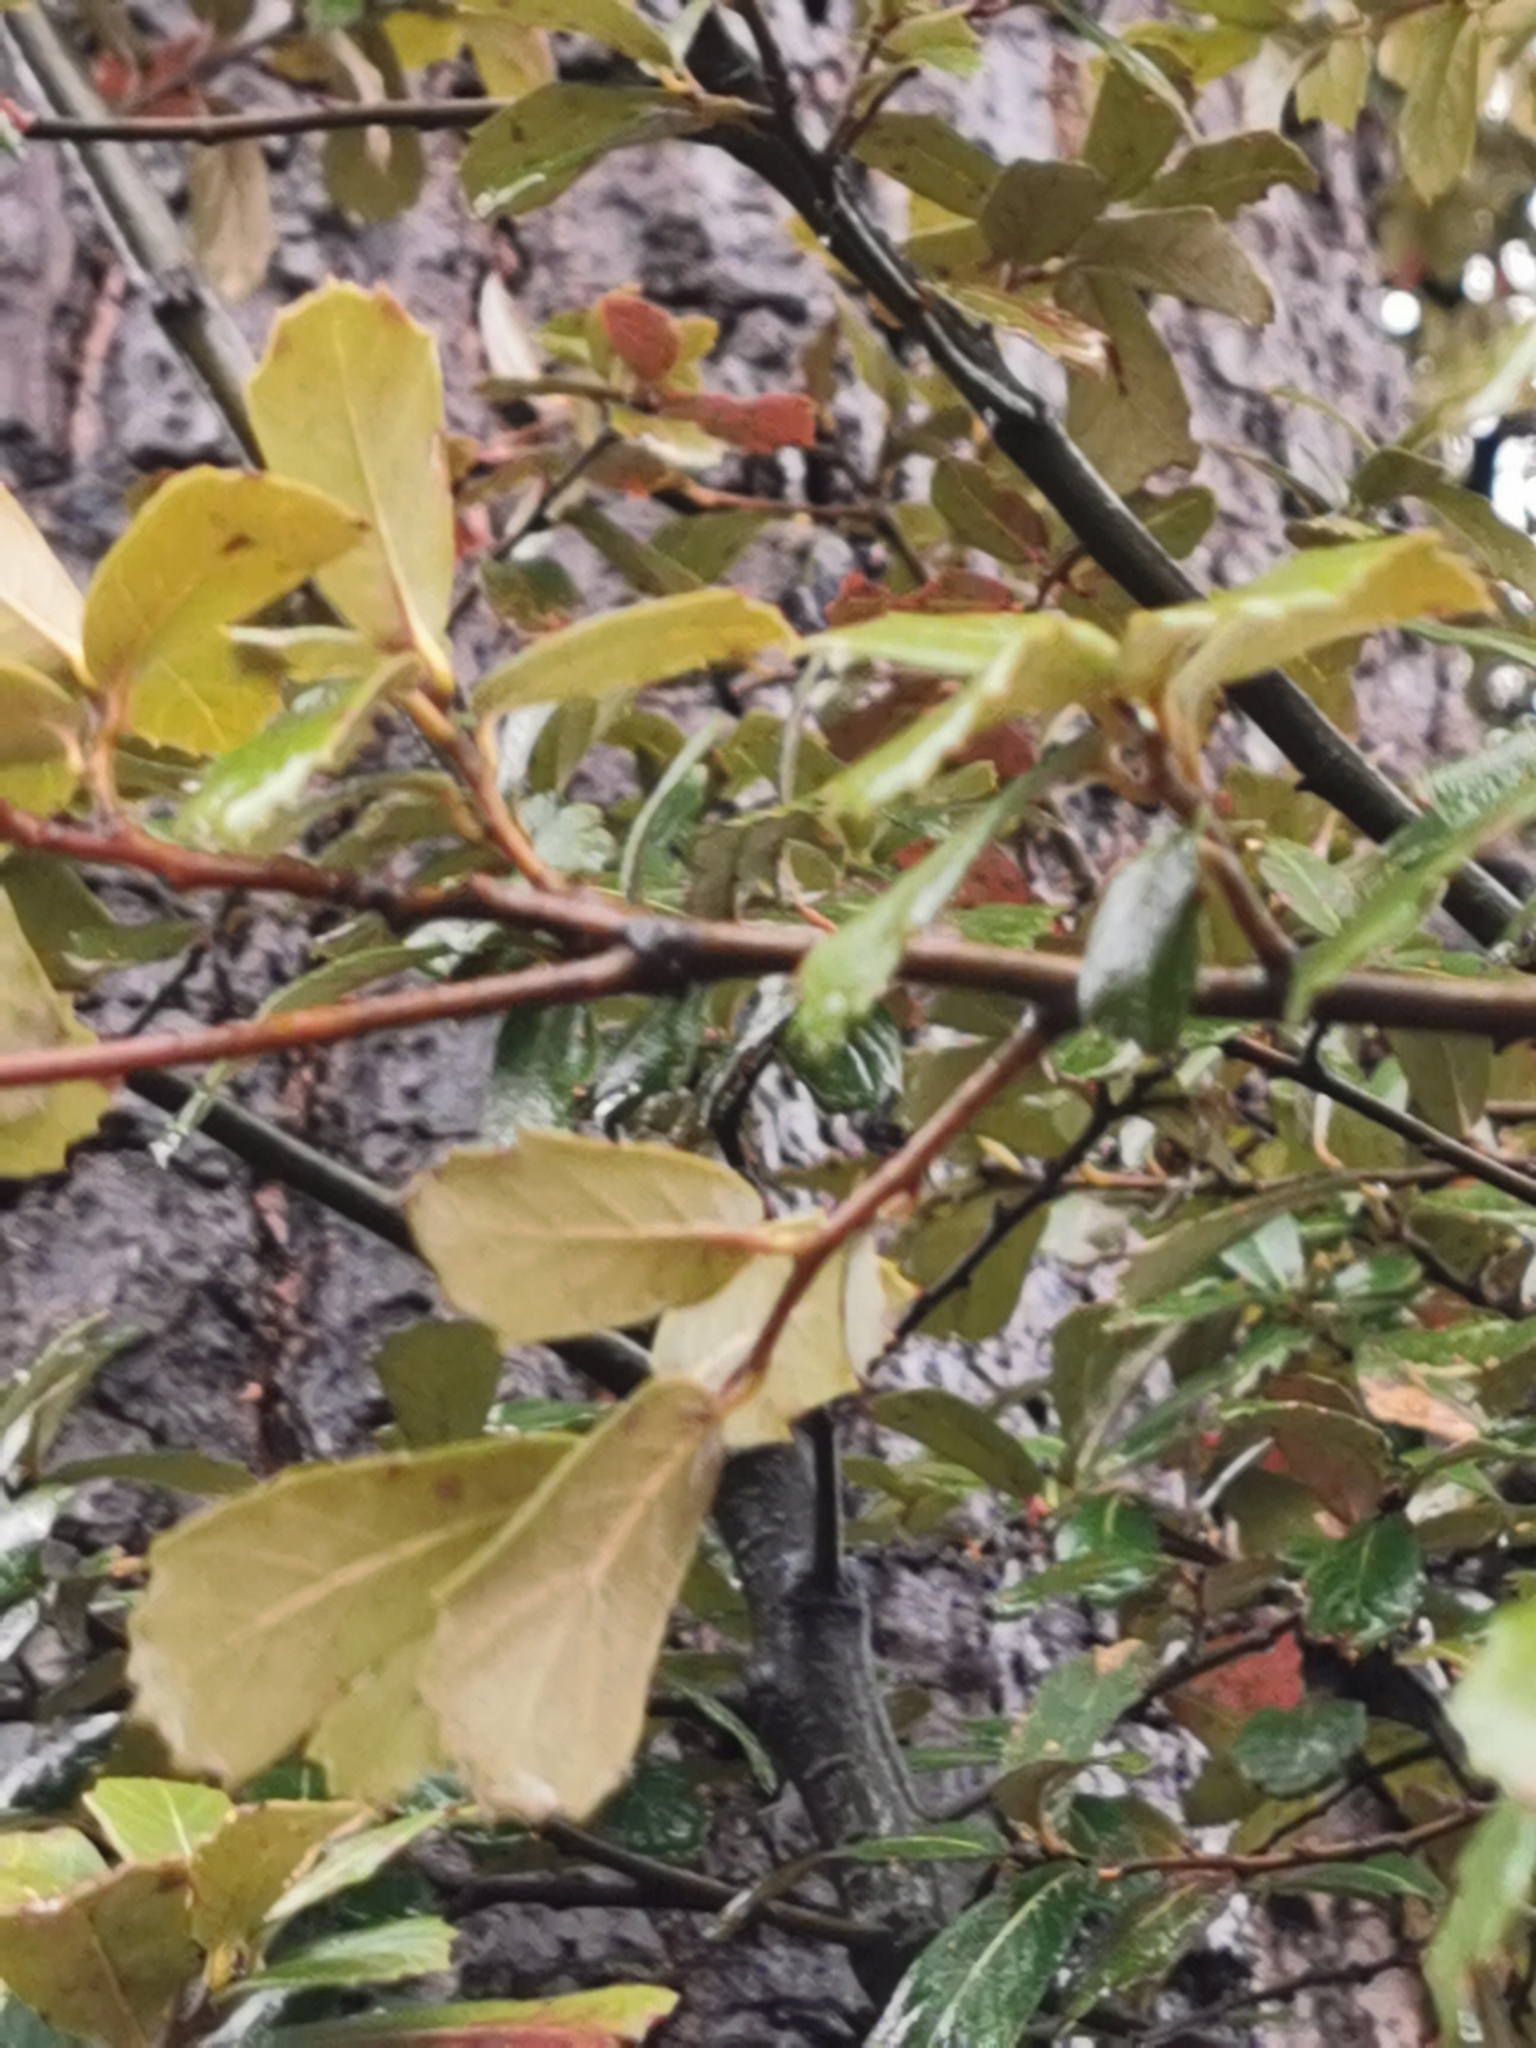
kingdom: Plantae
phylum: Tracheophyta
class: Magnoliopsida
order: Fagales
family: Fagaceae
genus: Quercus
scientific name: Quercus sideroxyla
